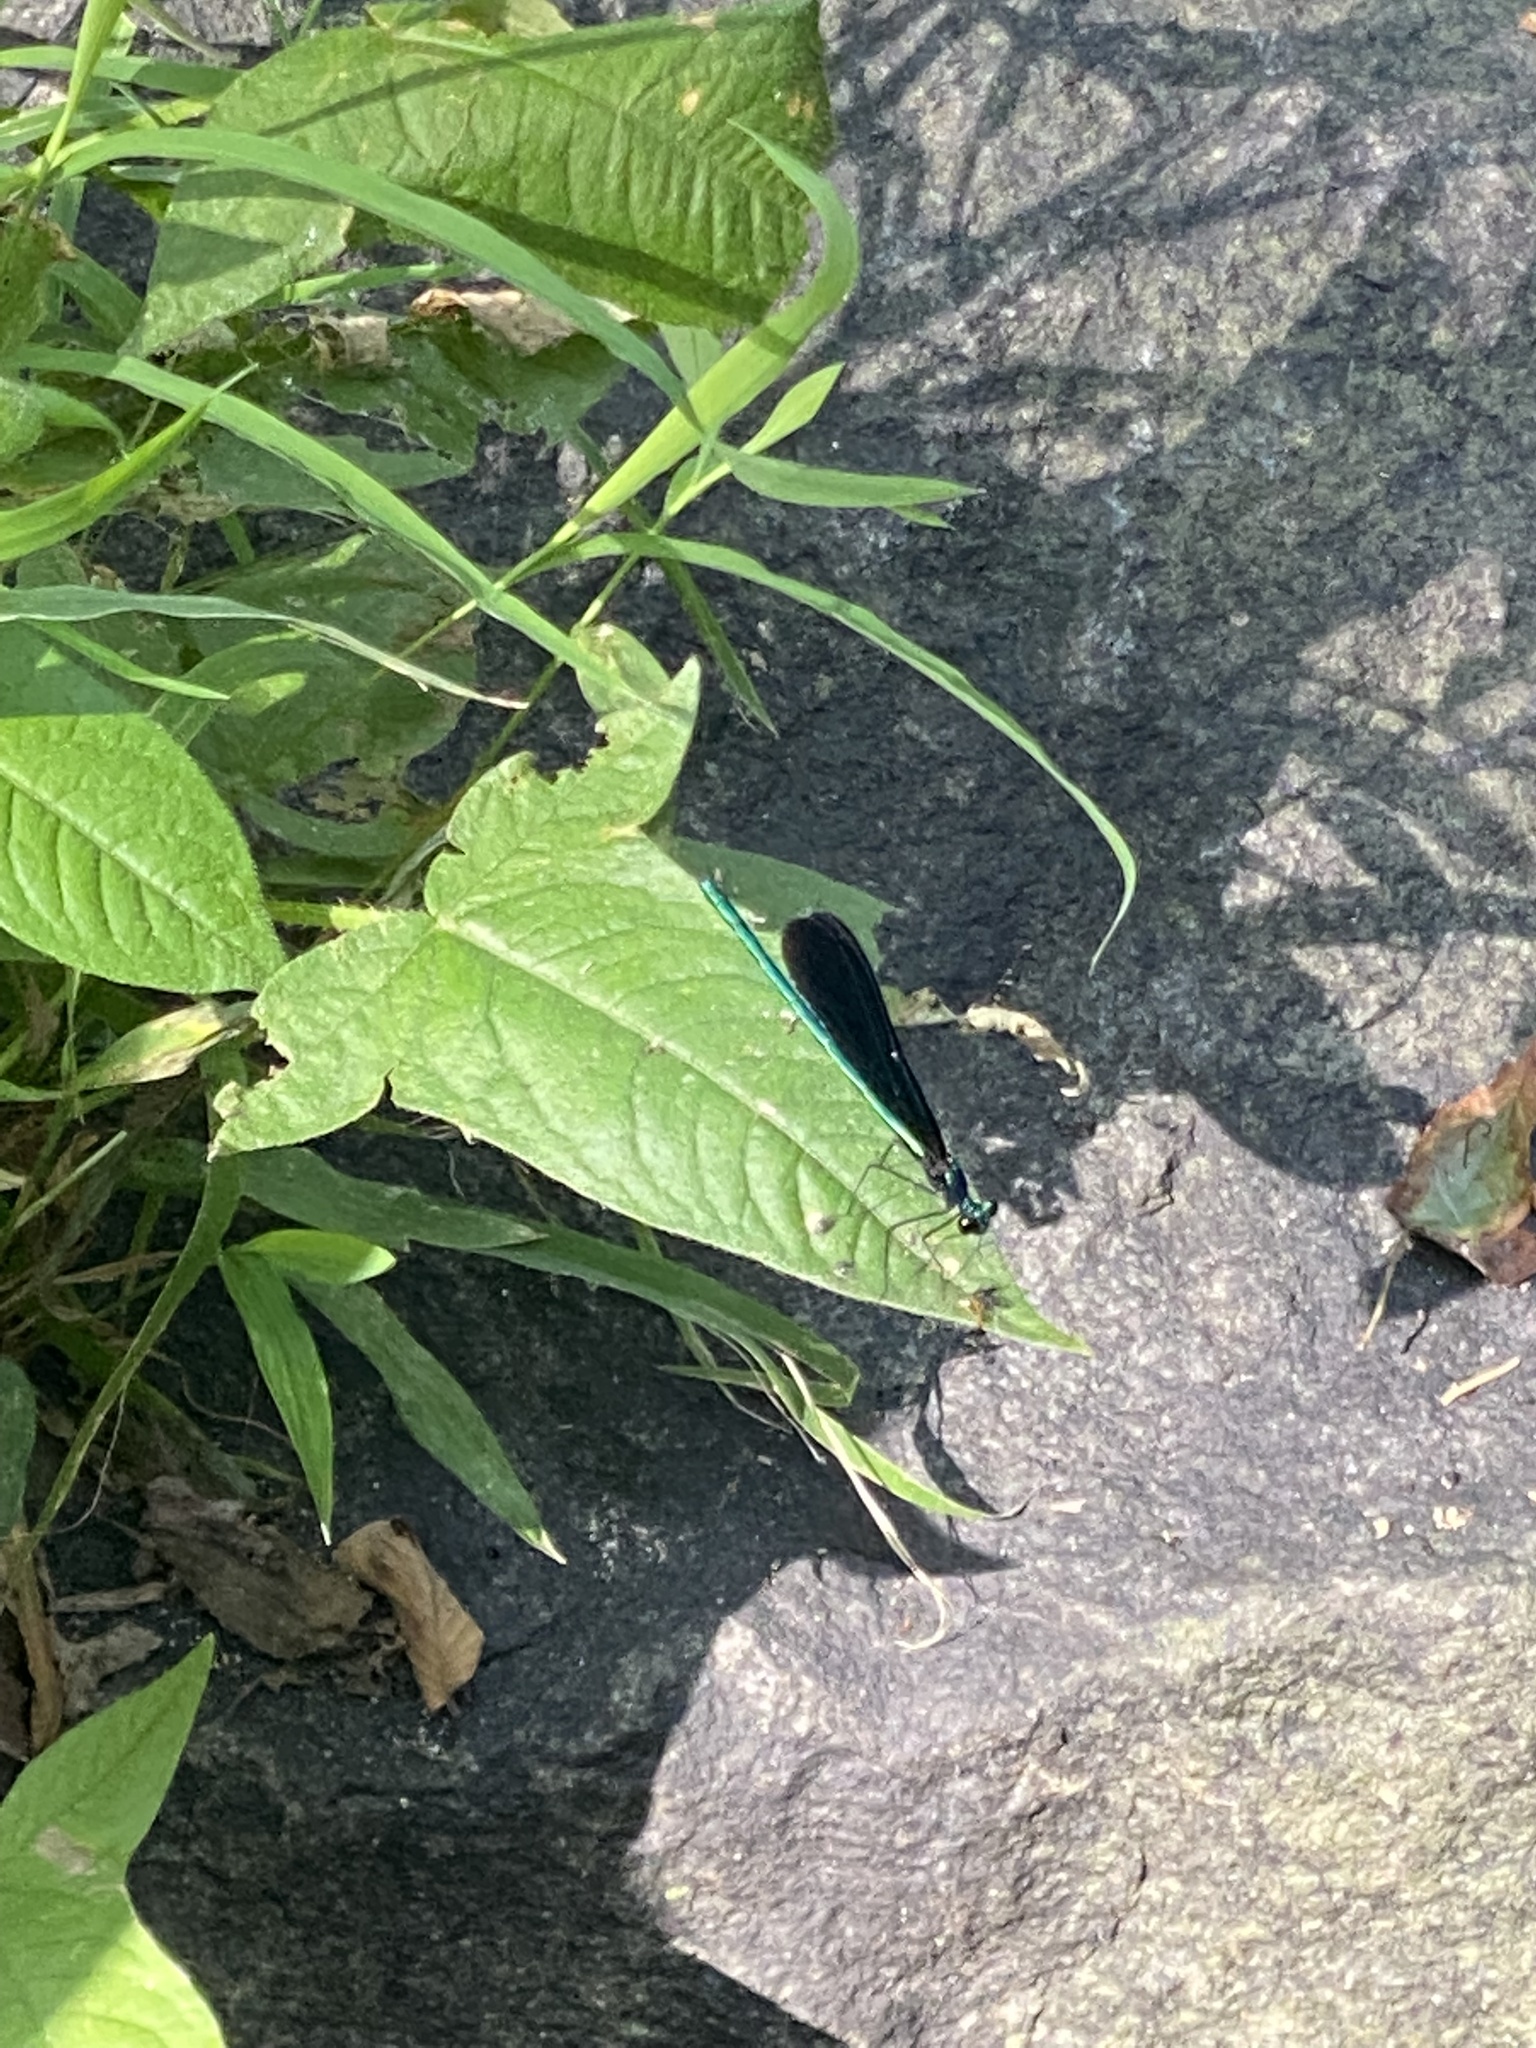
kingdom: Animalia
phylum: Arthropoda
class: Insecta
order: Odonata
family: Calopterygidae
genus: Calopteryx
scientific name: Calopteryx maculata
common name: Ebony jewelwing
